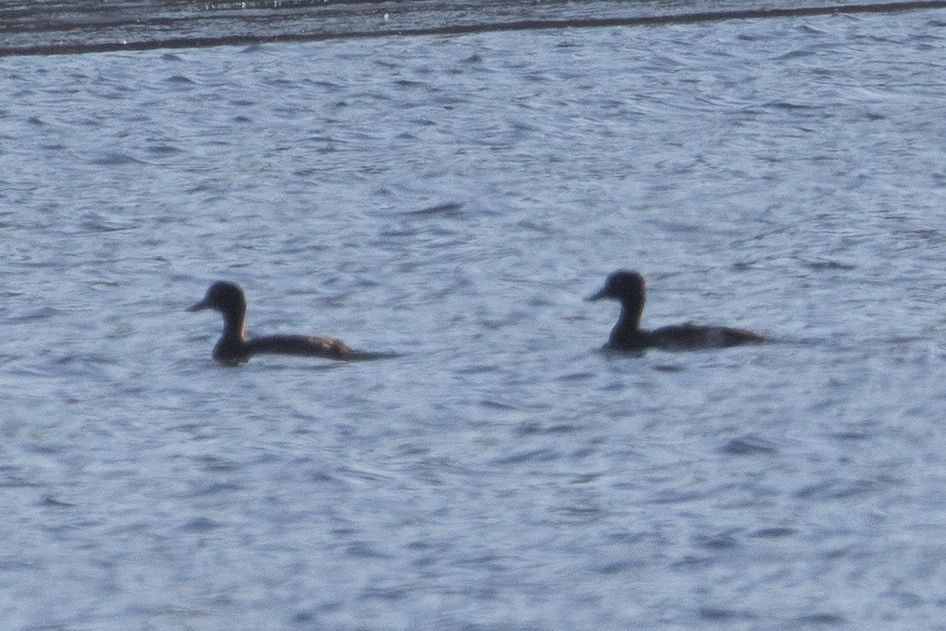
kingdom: Animalia
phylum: Chordata
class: Aves
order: Anseriformes
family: Anatidae
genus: Aythya
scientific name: Aythya fuligula
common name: Tufted duck
